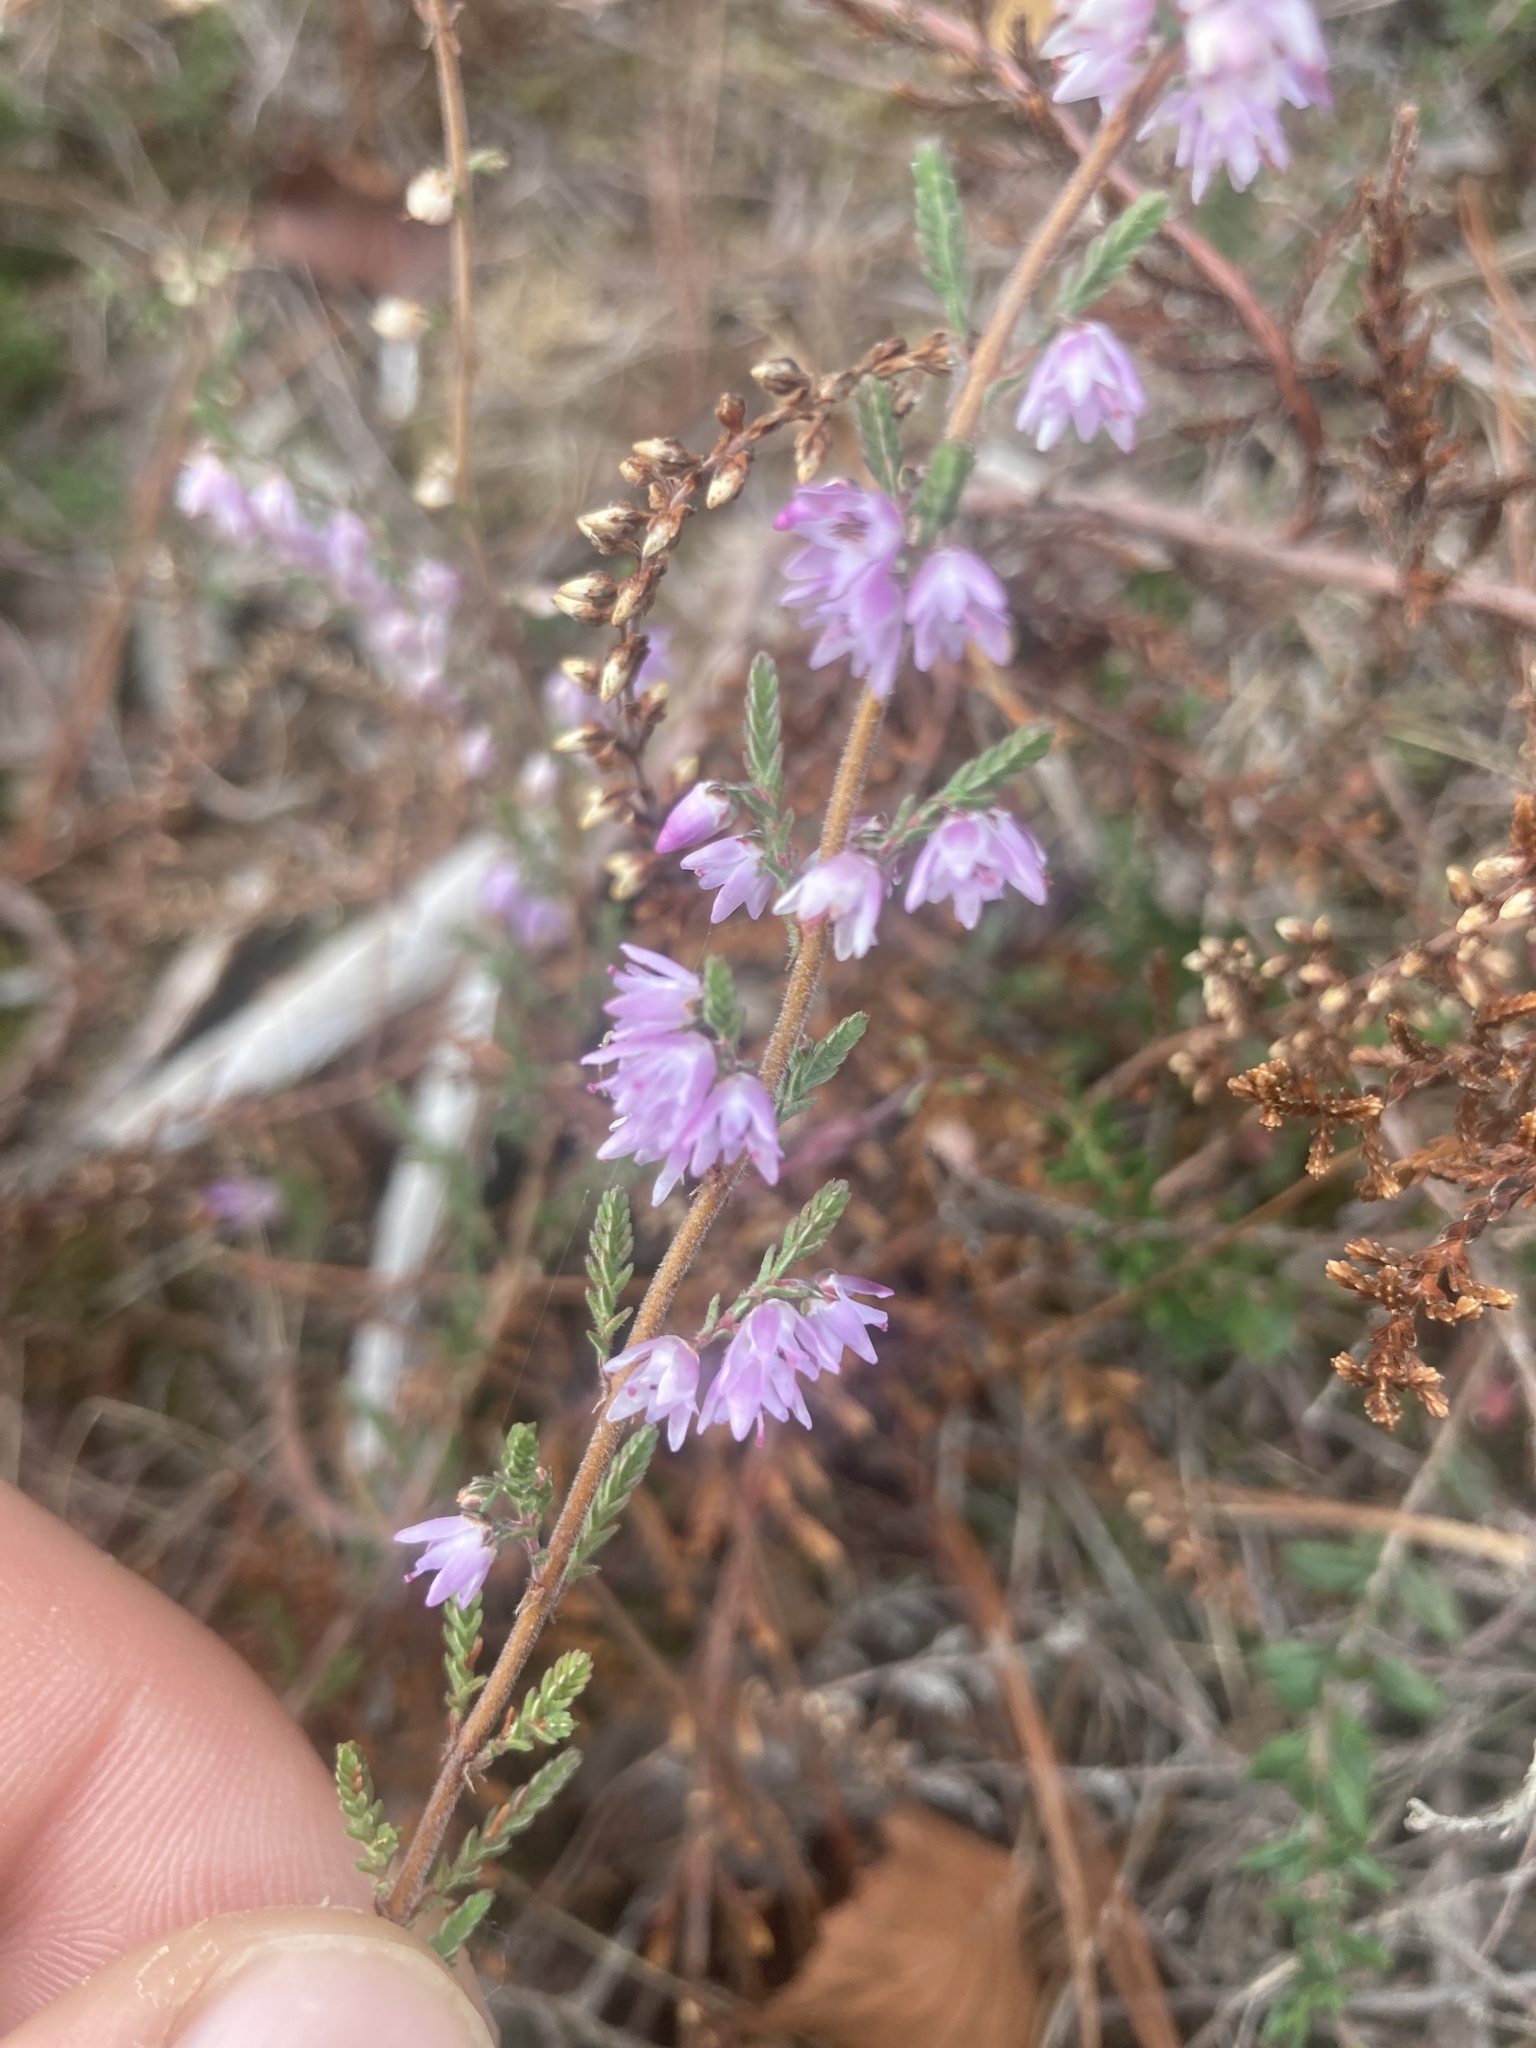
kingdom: Plantae
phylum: Tracheophyta
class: Magnoliopsida
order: Ericales
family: Ericaceae
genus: Calluna
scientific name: Calluna vulgaris
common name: Heather
